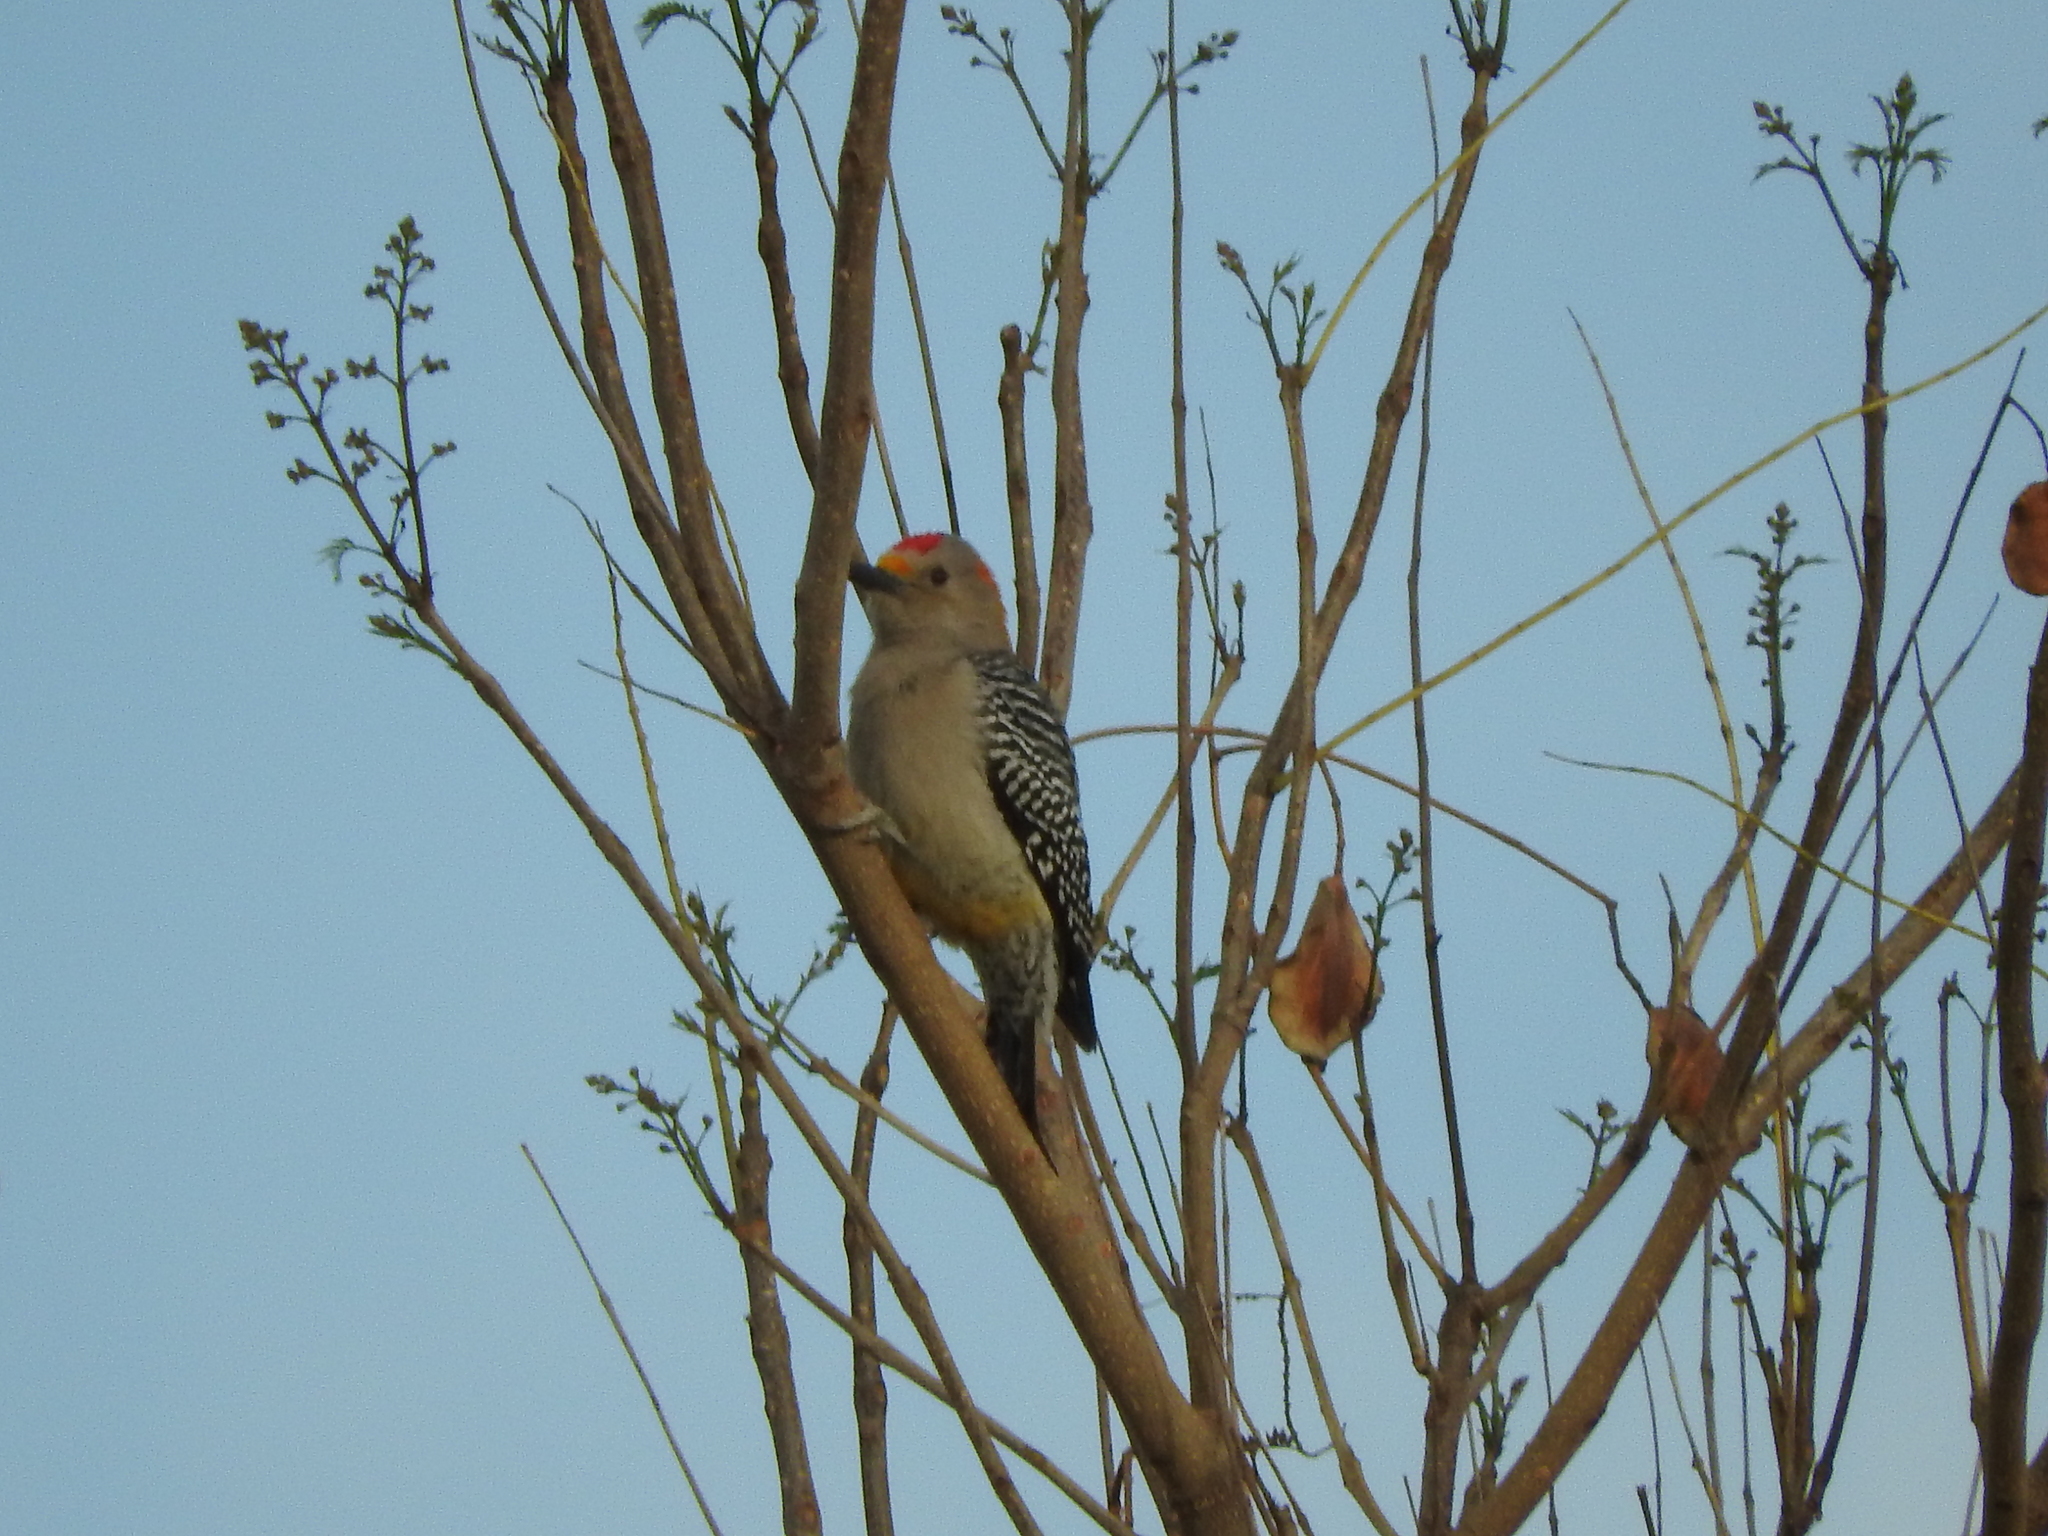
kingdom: Animalia
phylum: Chordata
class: Aves
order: Piciformes
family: Picidae
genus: Melanerpes
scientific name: Melanerpes aurifrons
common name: Golden-fronted woodpecker
